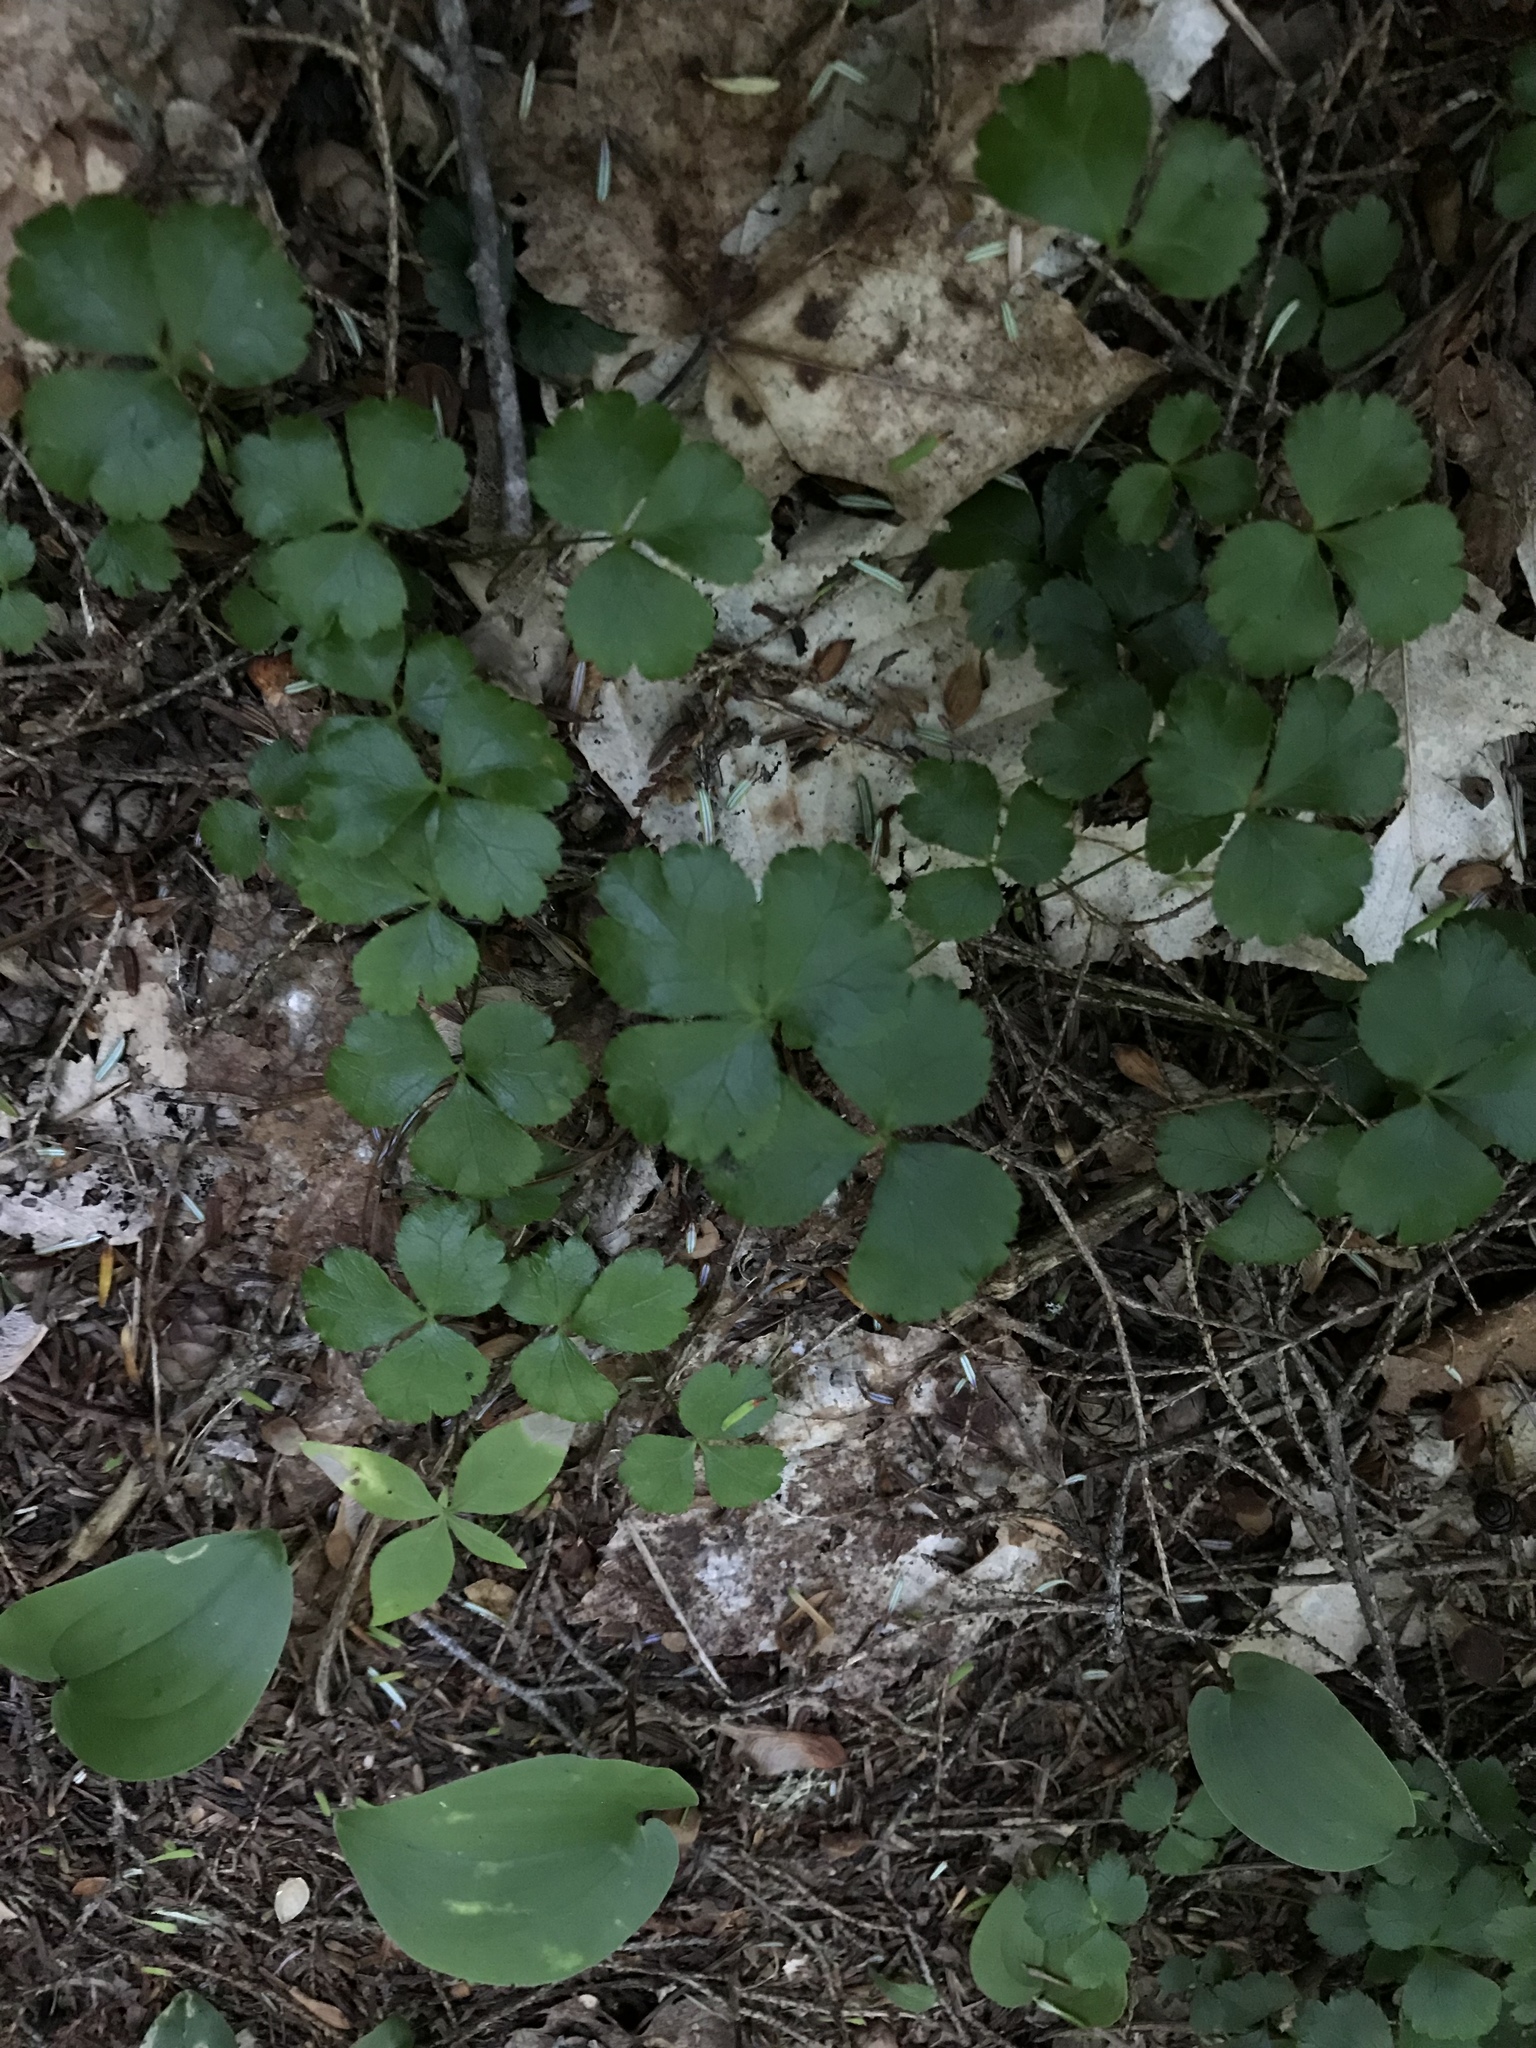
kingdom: Plantae
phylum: Tracheophyta
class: Magnoliopsida
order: Ranunculales
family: Ranunculaceae
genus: Coptis
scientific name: Coptis trifolia
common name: Canker-root
